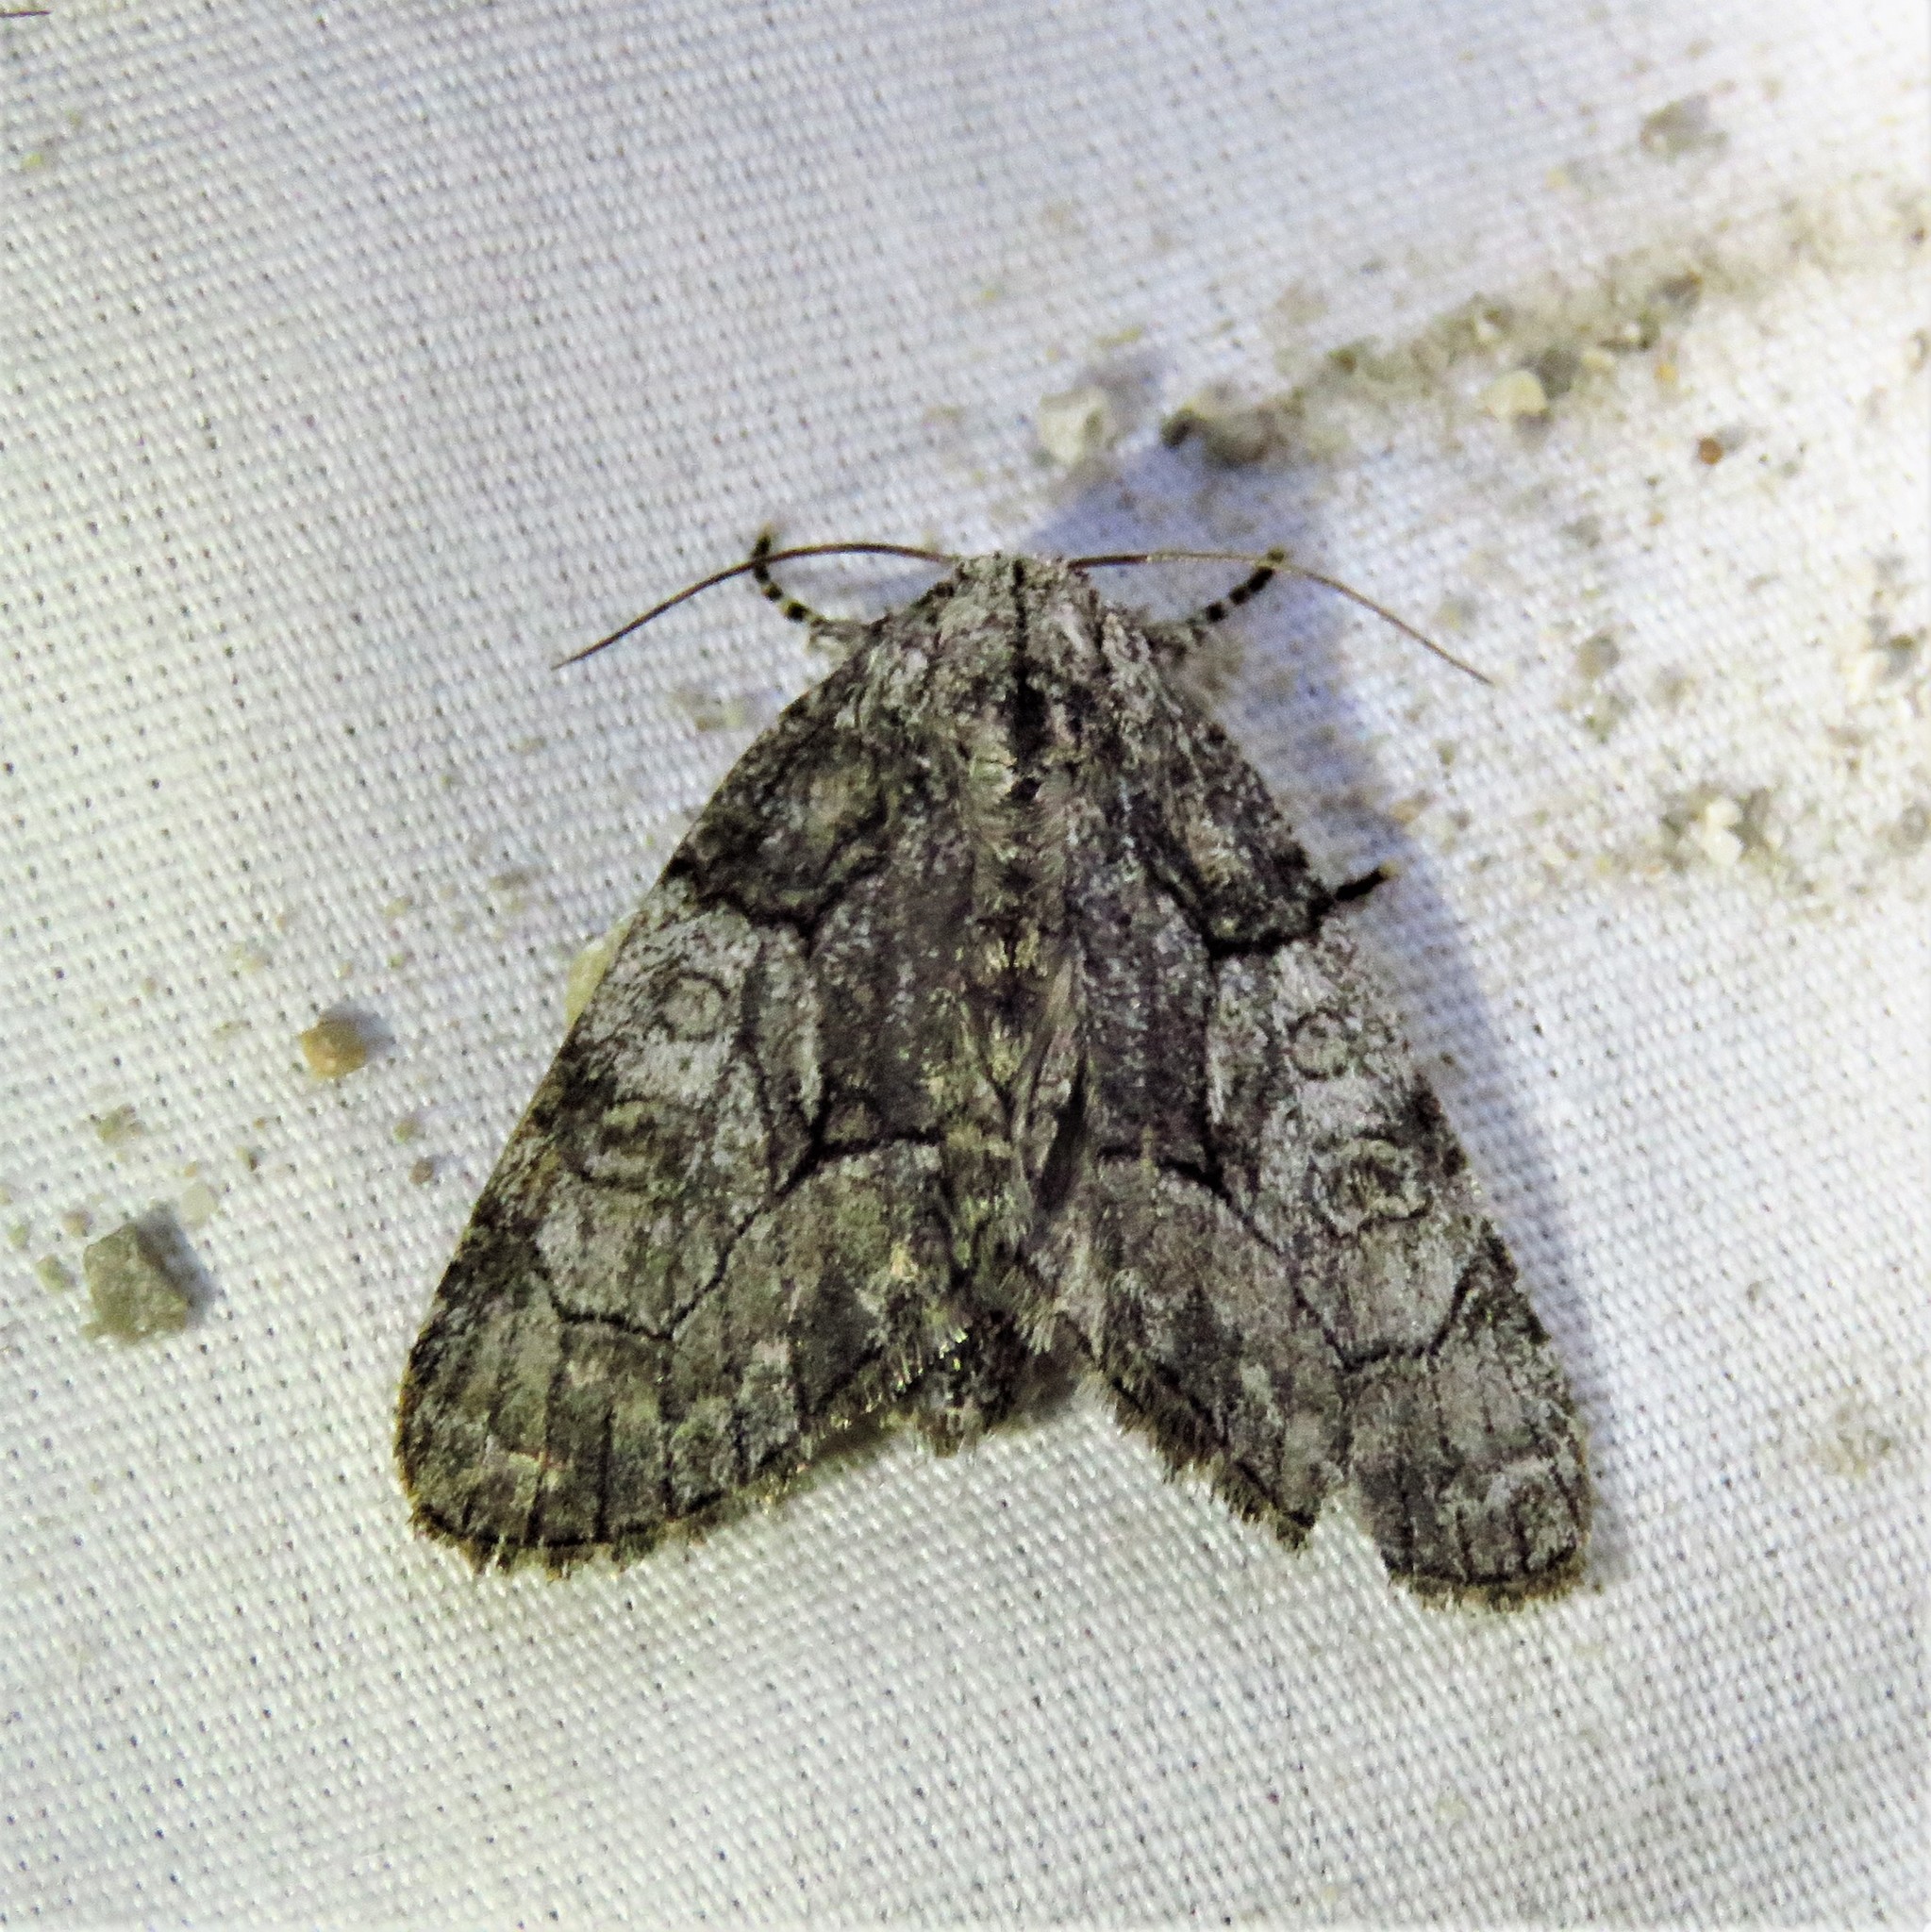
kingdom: Animalia
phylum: Arthropoda
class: Insecta
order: Lepidoptera
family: Noctuidae
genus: Raphia
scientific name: Raphia frater
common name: Brother
